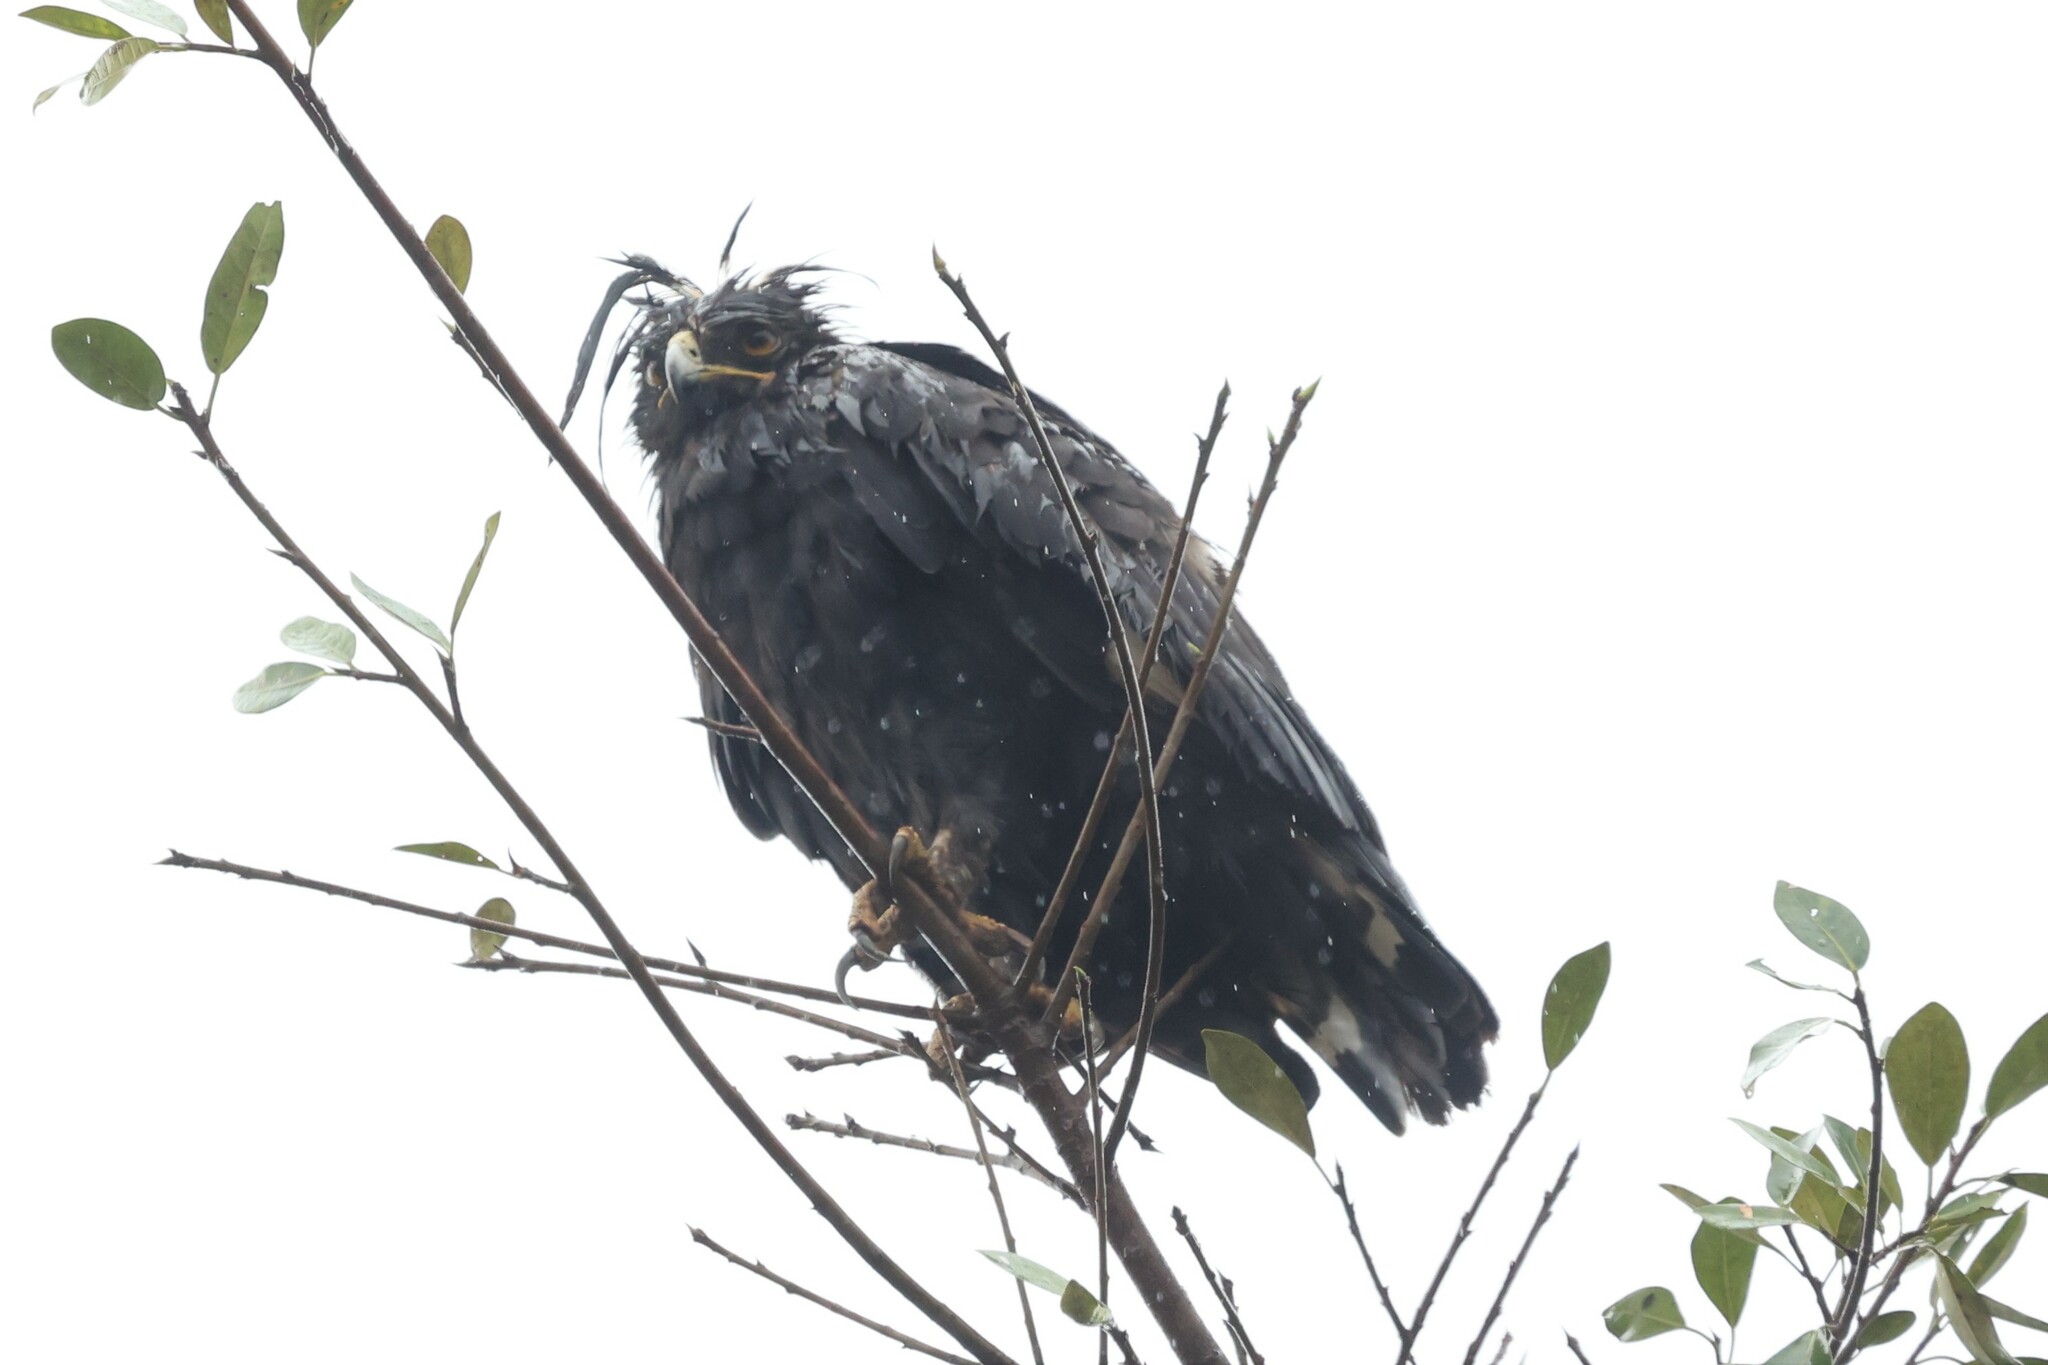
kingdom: Animalia
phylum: Chordata
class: Aves
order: Accipitriformes
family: Accipitridae
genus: Lophaetus
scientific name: Lophaetus occipitalis
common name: Long-crested eagle
